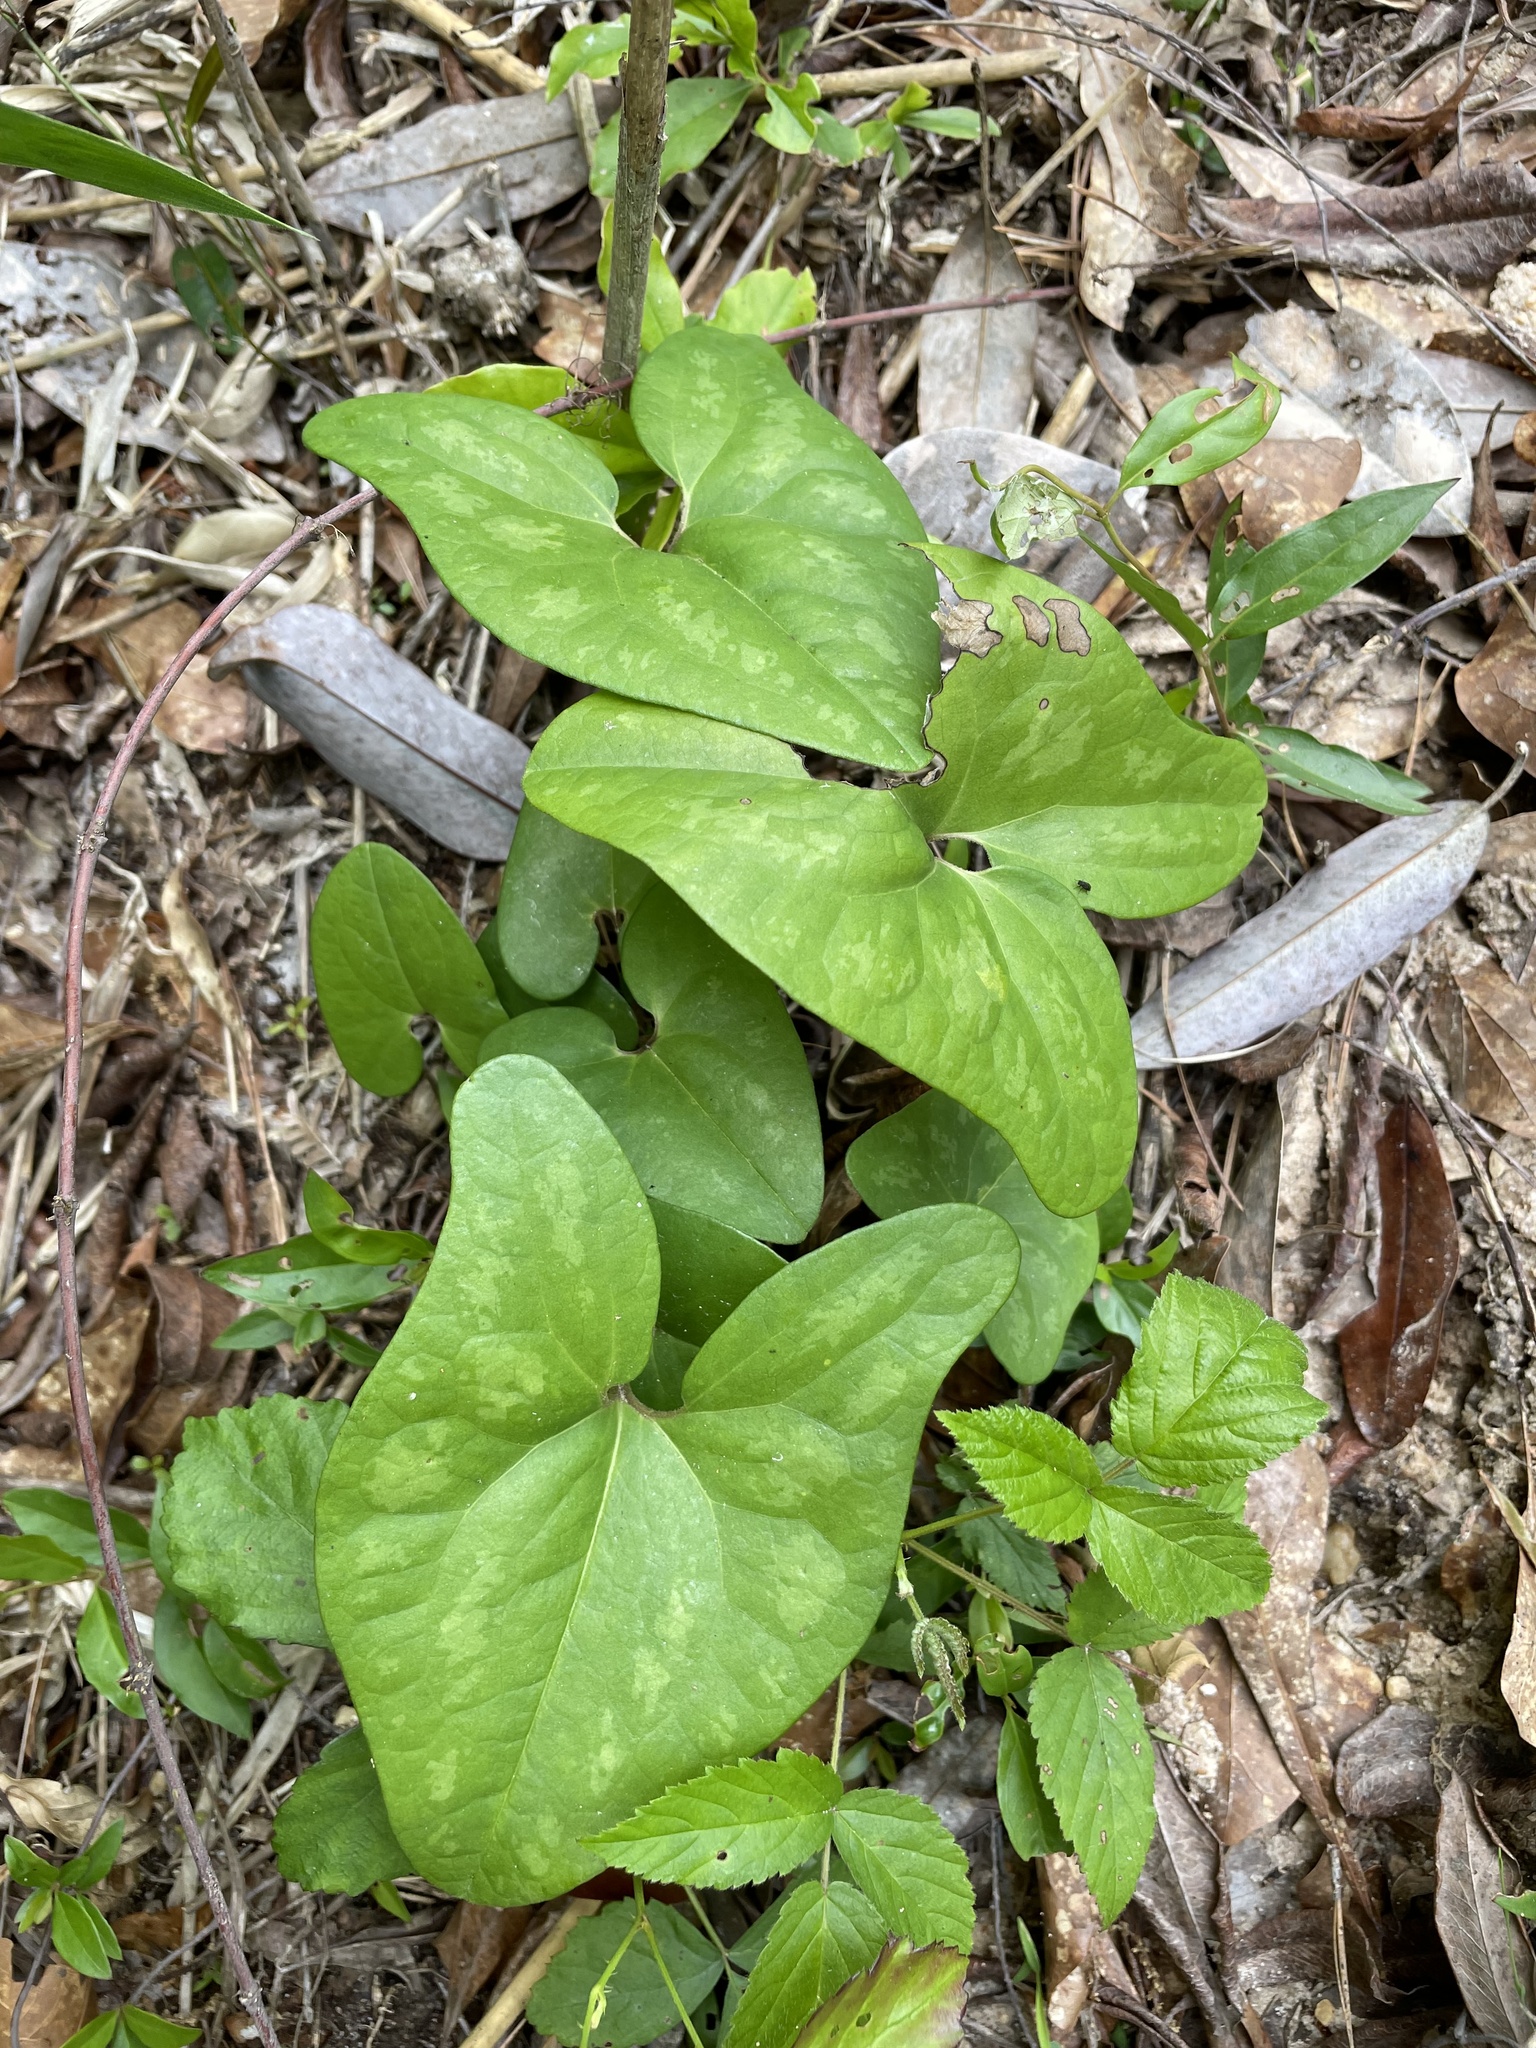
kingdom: Plantae
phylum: Tracheophyta
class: Magnoliopsida
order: Piperales
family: Aristolochiaceae
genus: Hexastylis
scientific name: Hexastylis speciosa
